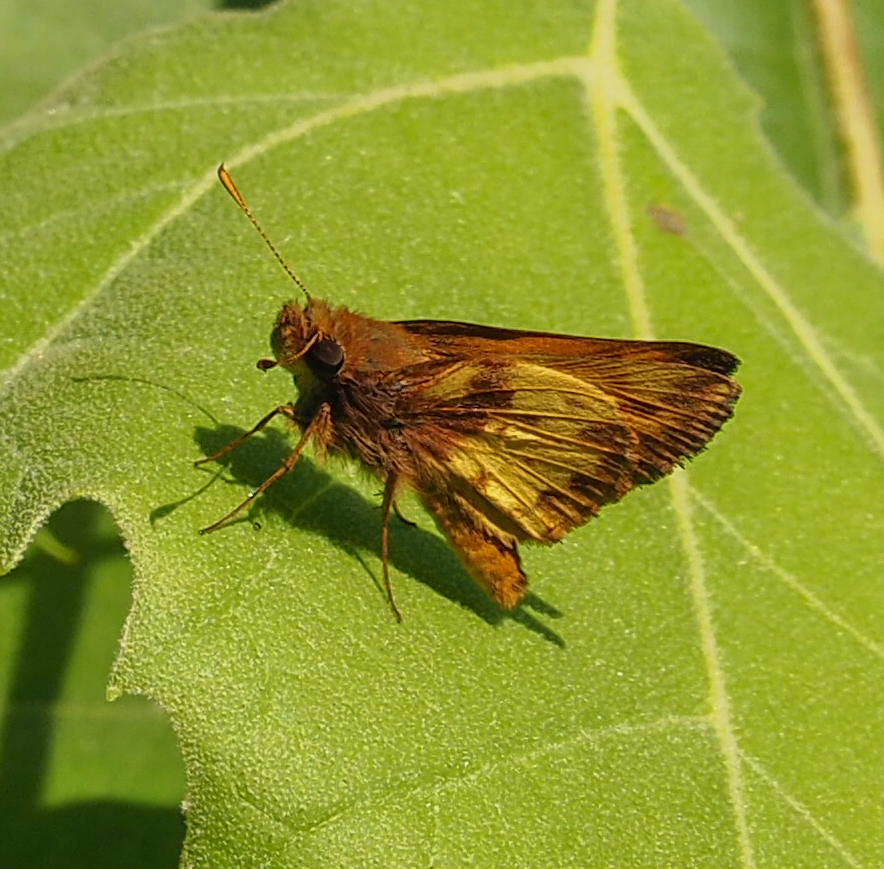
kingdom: Animalia
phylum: Arthropoda
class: Insecta
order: Lepidoptera
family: Hesperiidae
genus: Lon
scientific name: Lon zabulon
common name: Zabulon skipper
